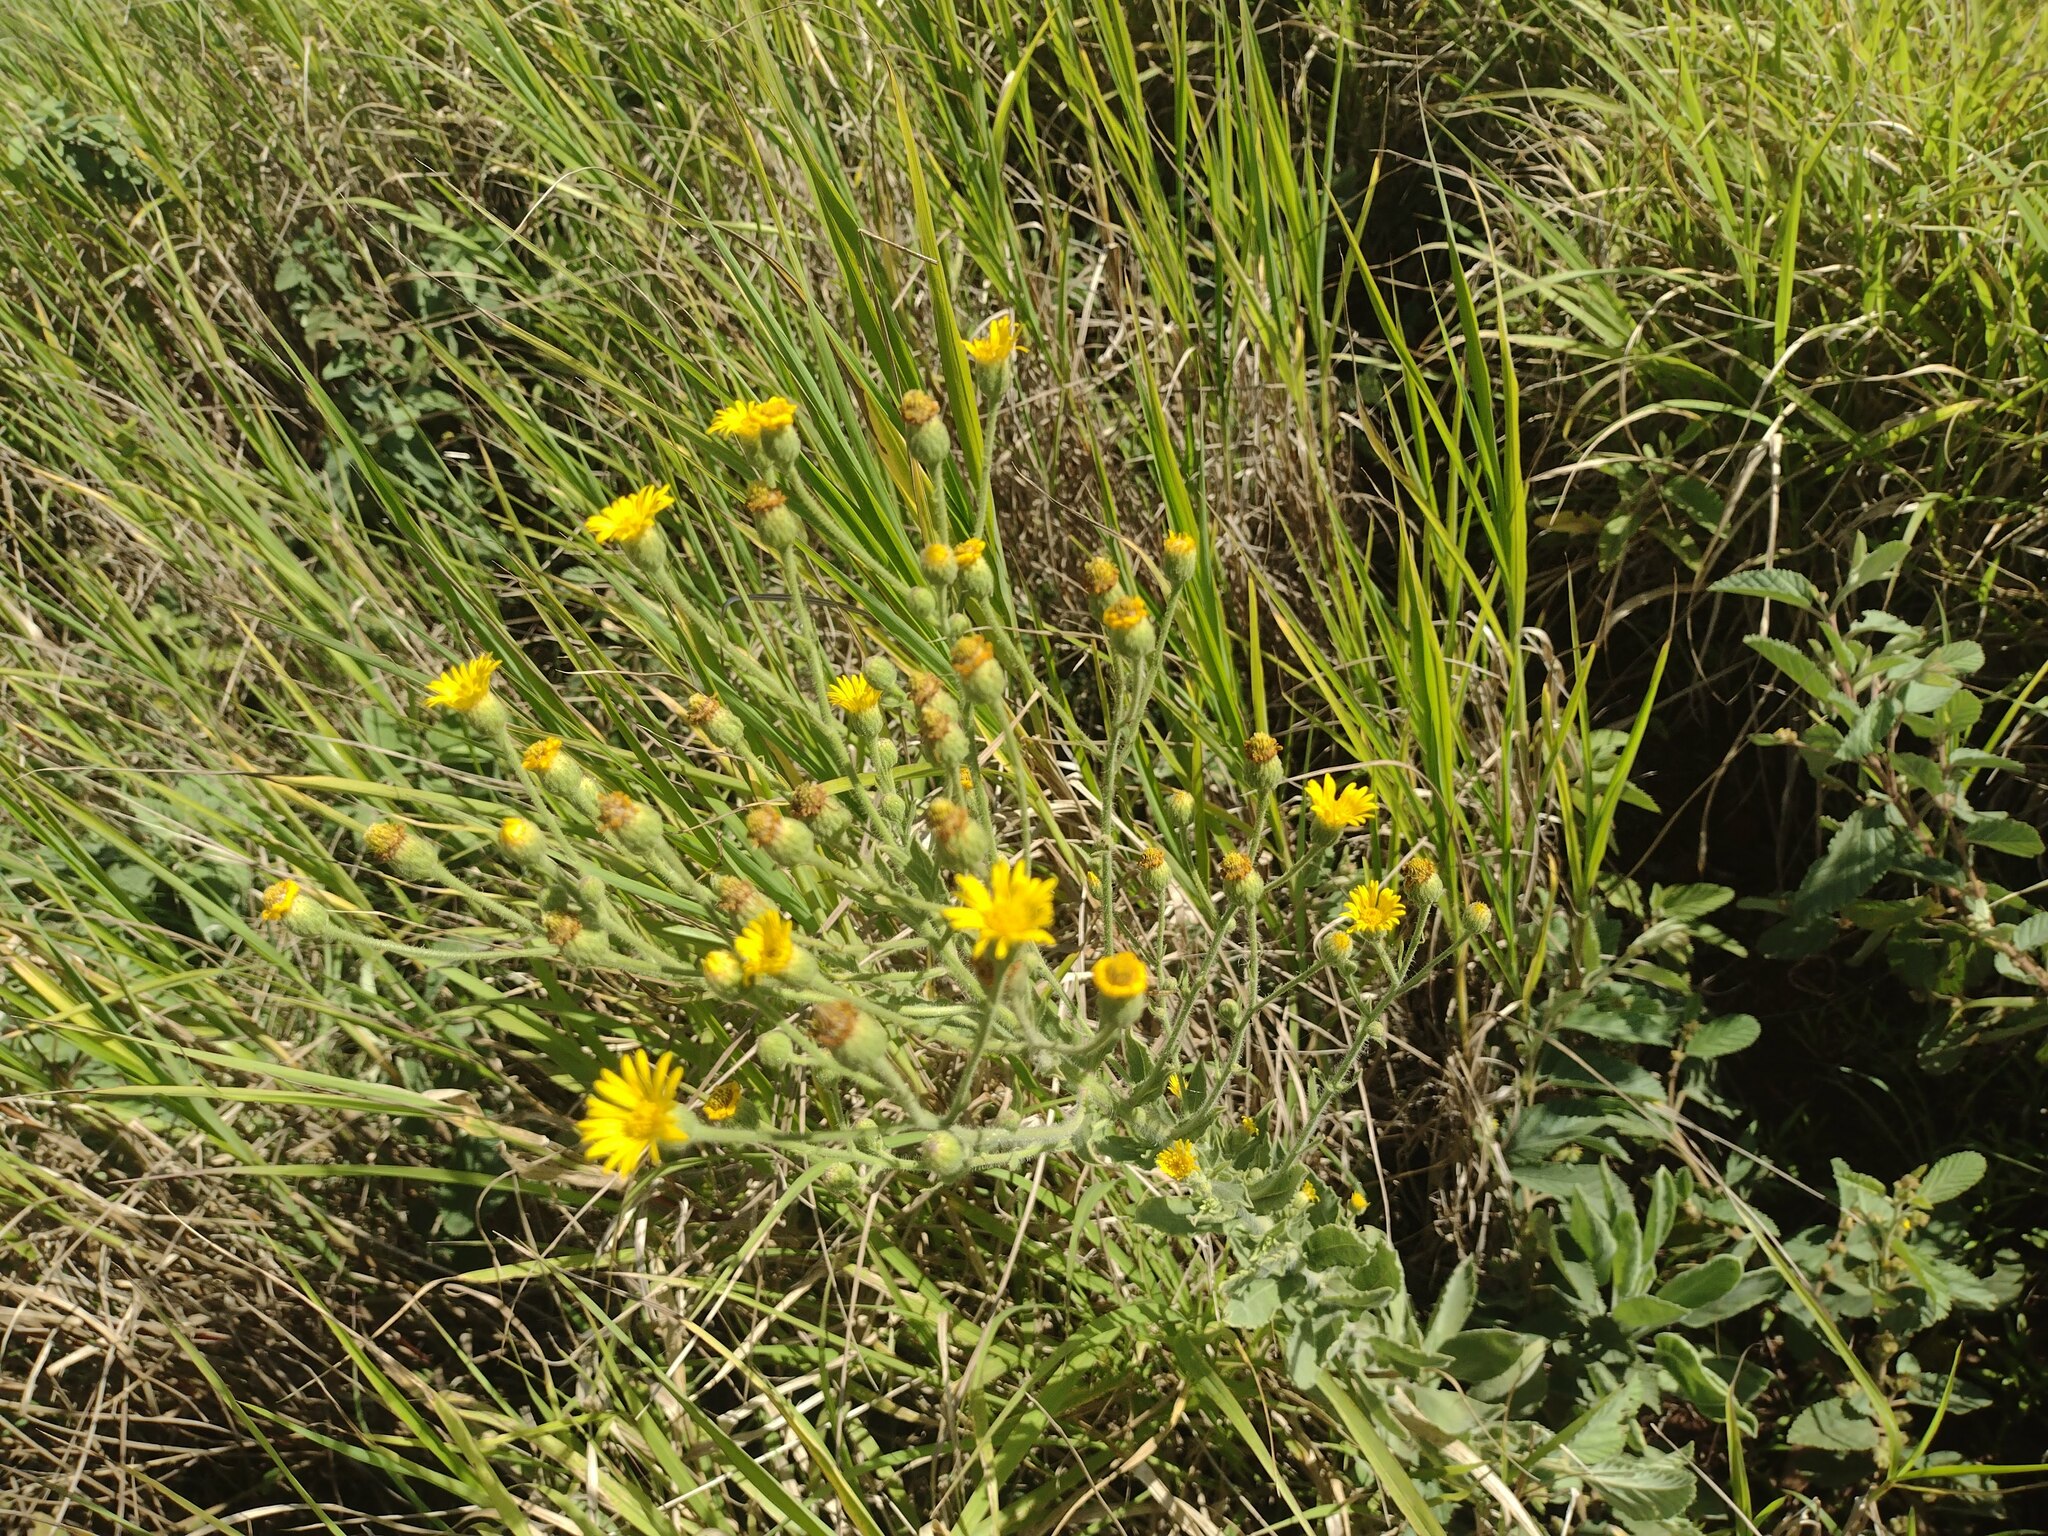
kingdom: Plantae
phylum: Tracheophyta
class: Magnoliopsida
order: Asterales
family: Asteraceae
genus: Heterotheca
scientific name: Heterotheca grandiflora
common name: Telegraphweed
